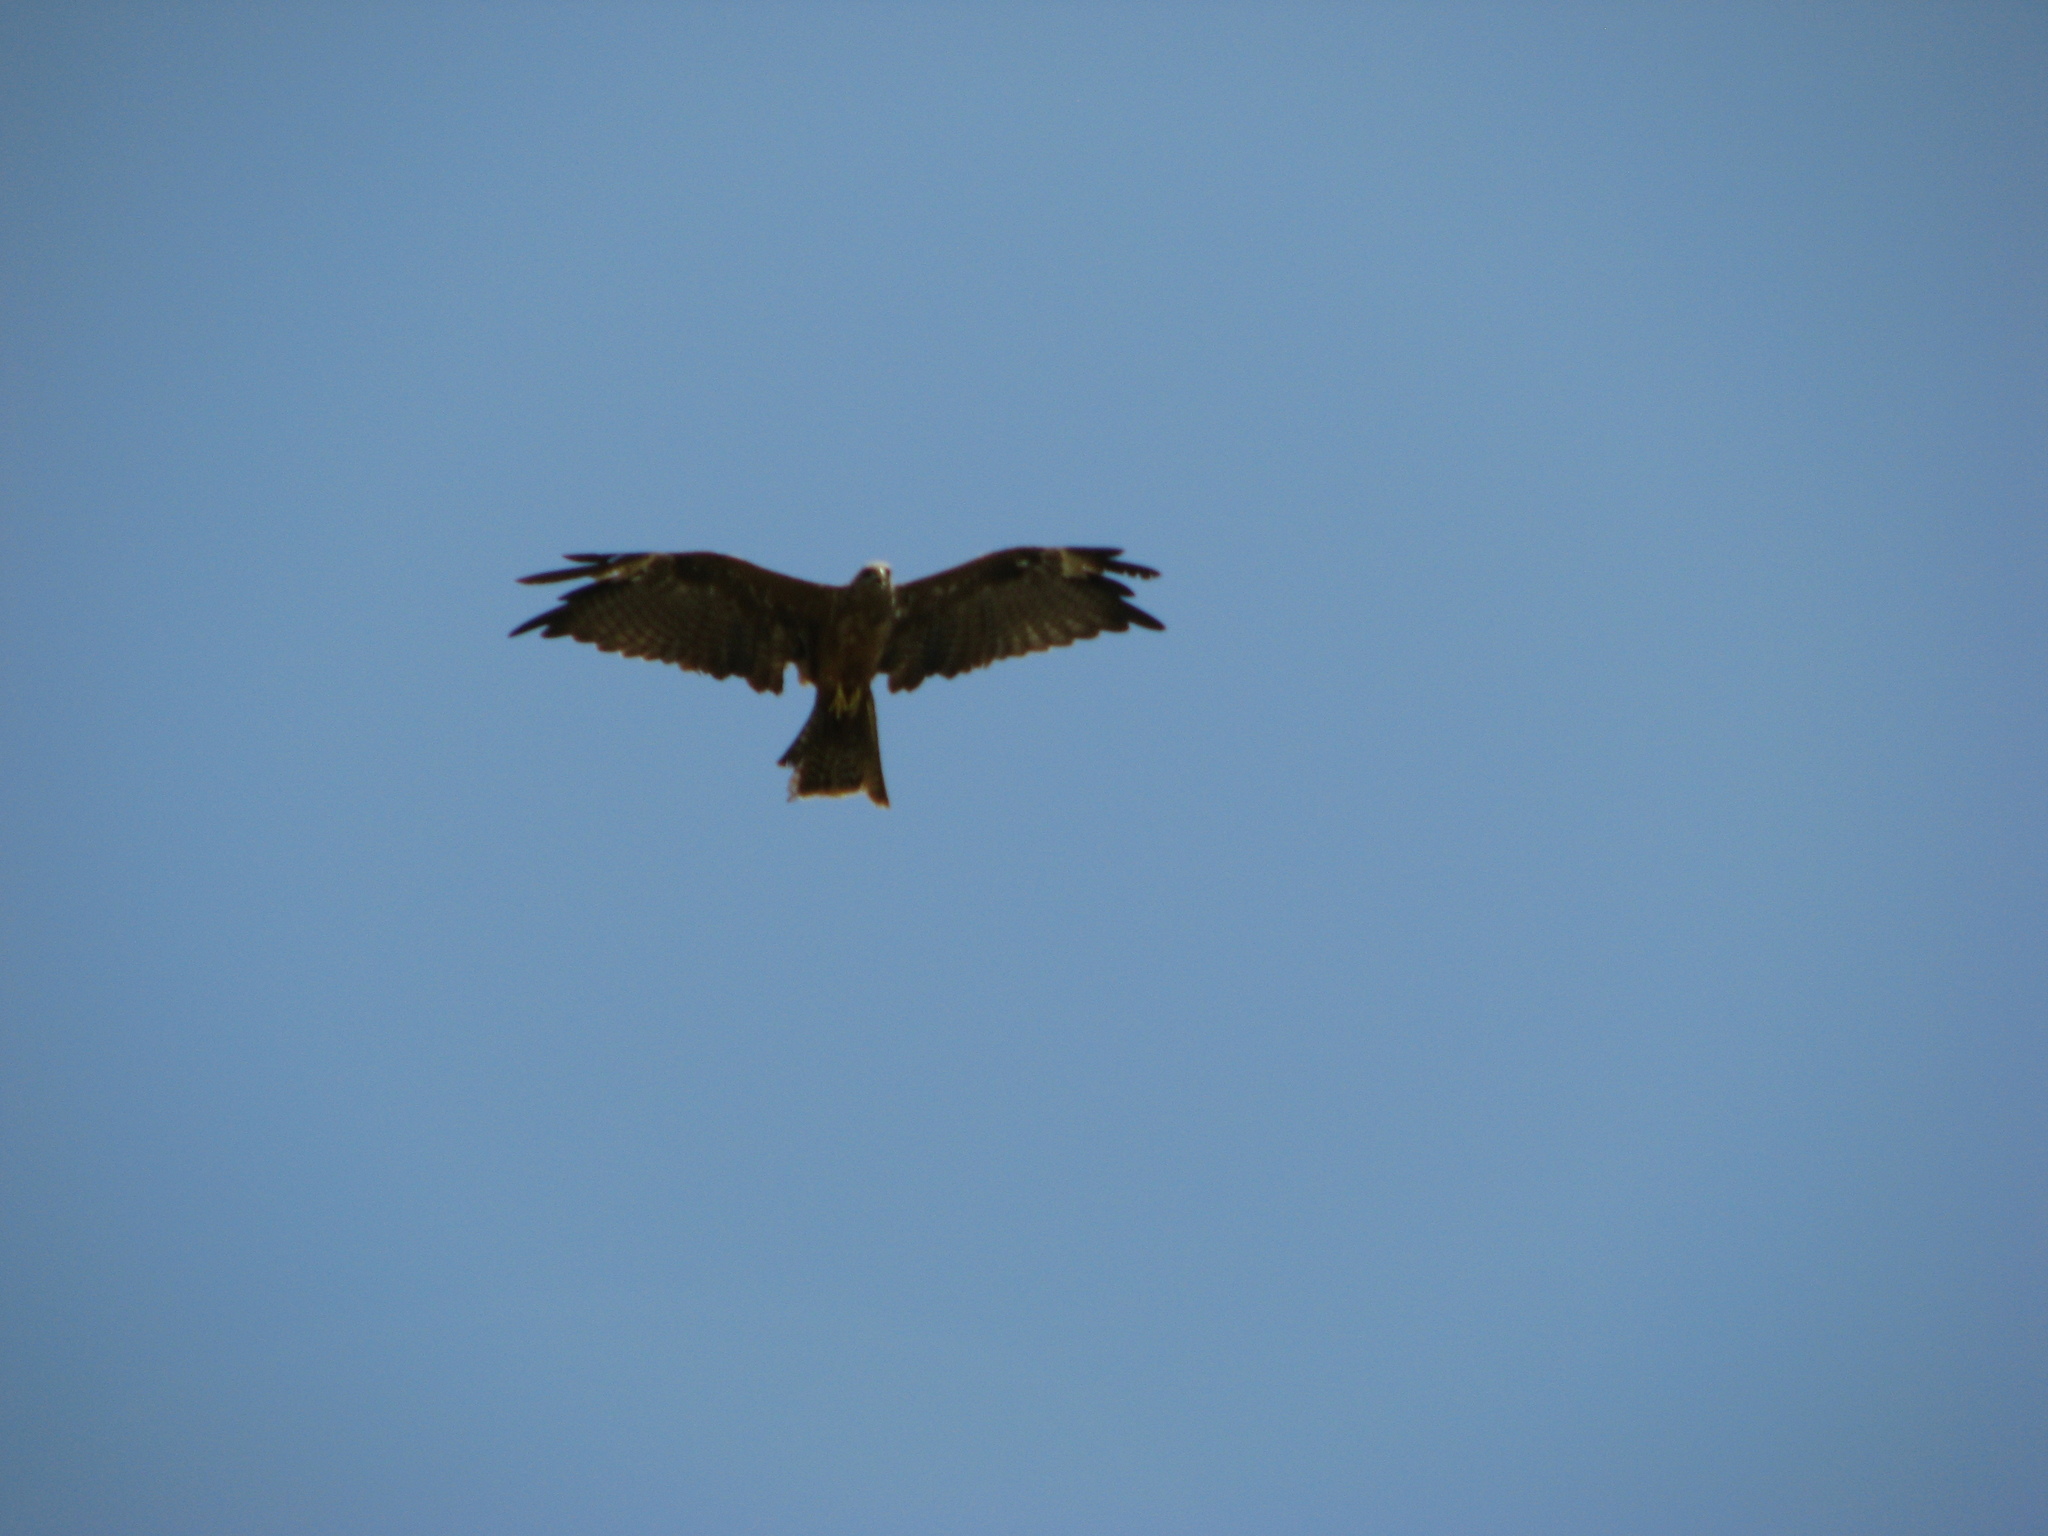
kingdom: Animalia
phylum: Chordata
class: Aves
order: Accipitriformes
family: Accipitridae
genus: Milvus
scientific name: Milvus migrans
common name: Black kite
